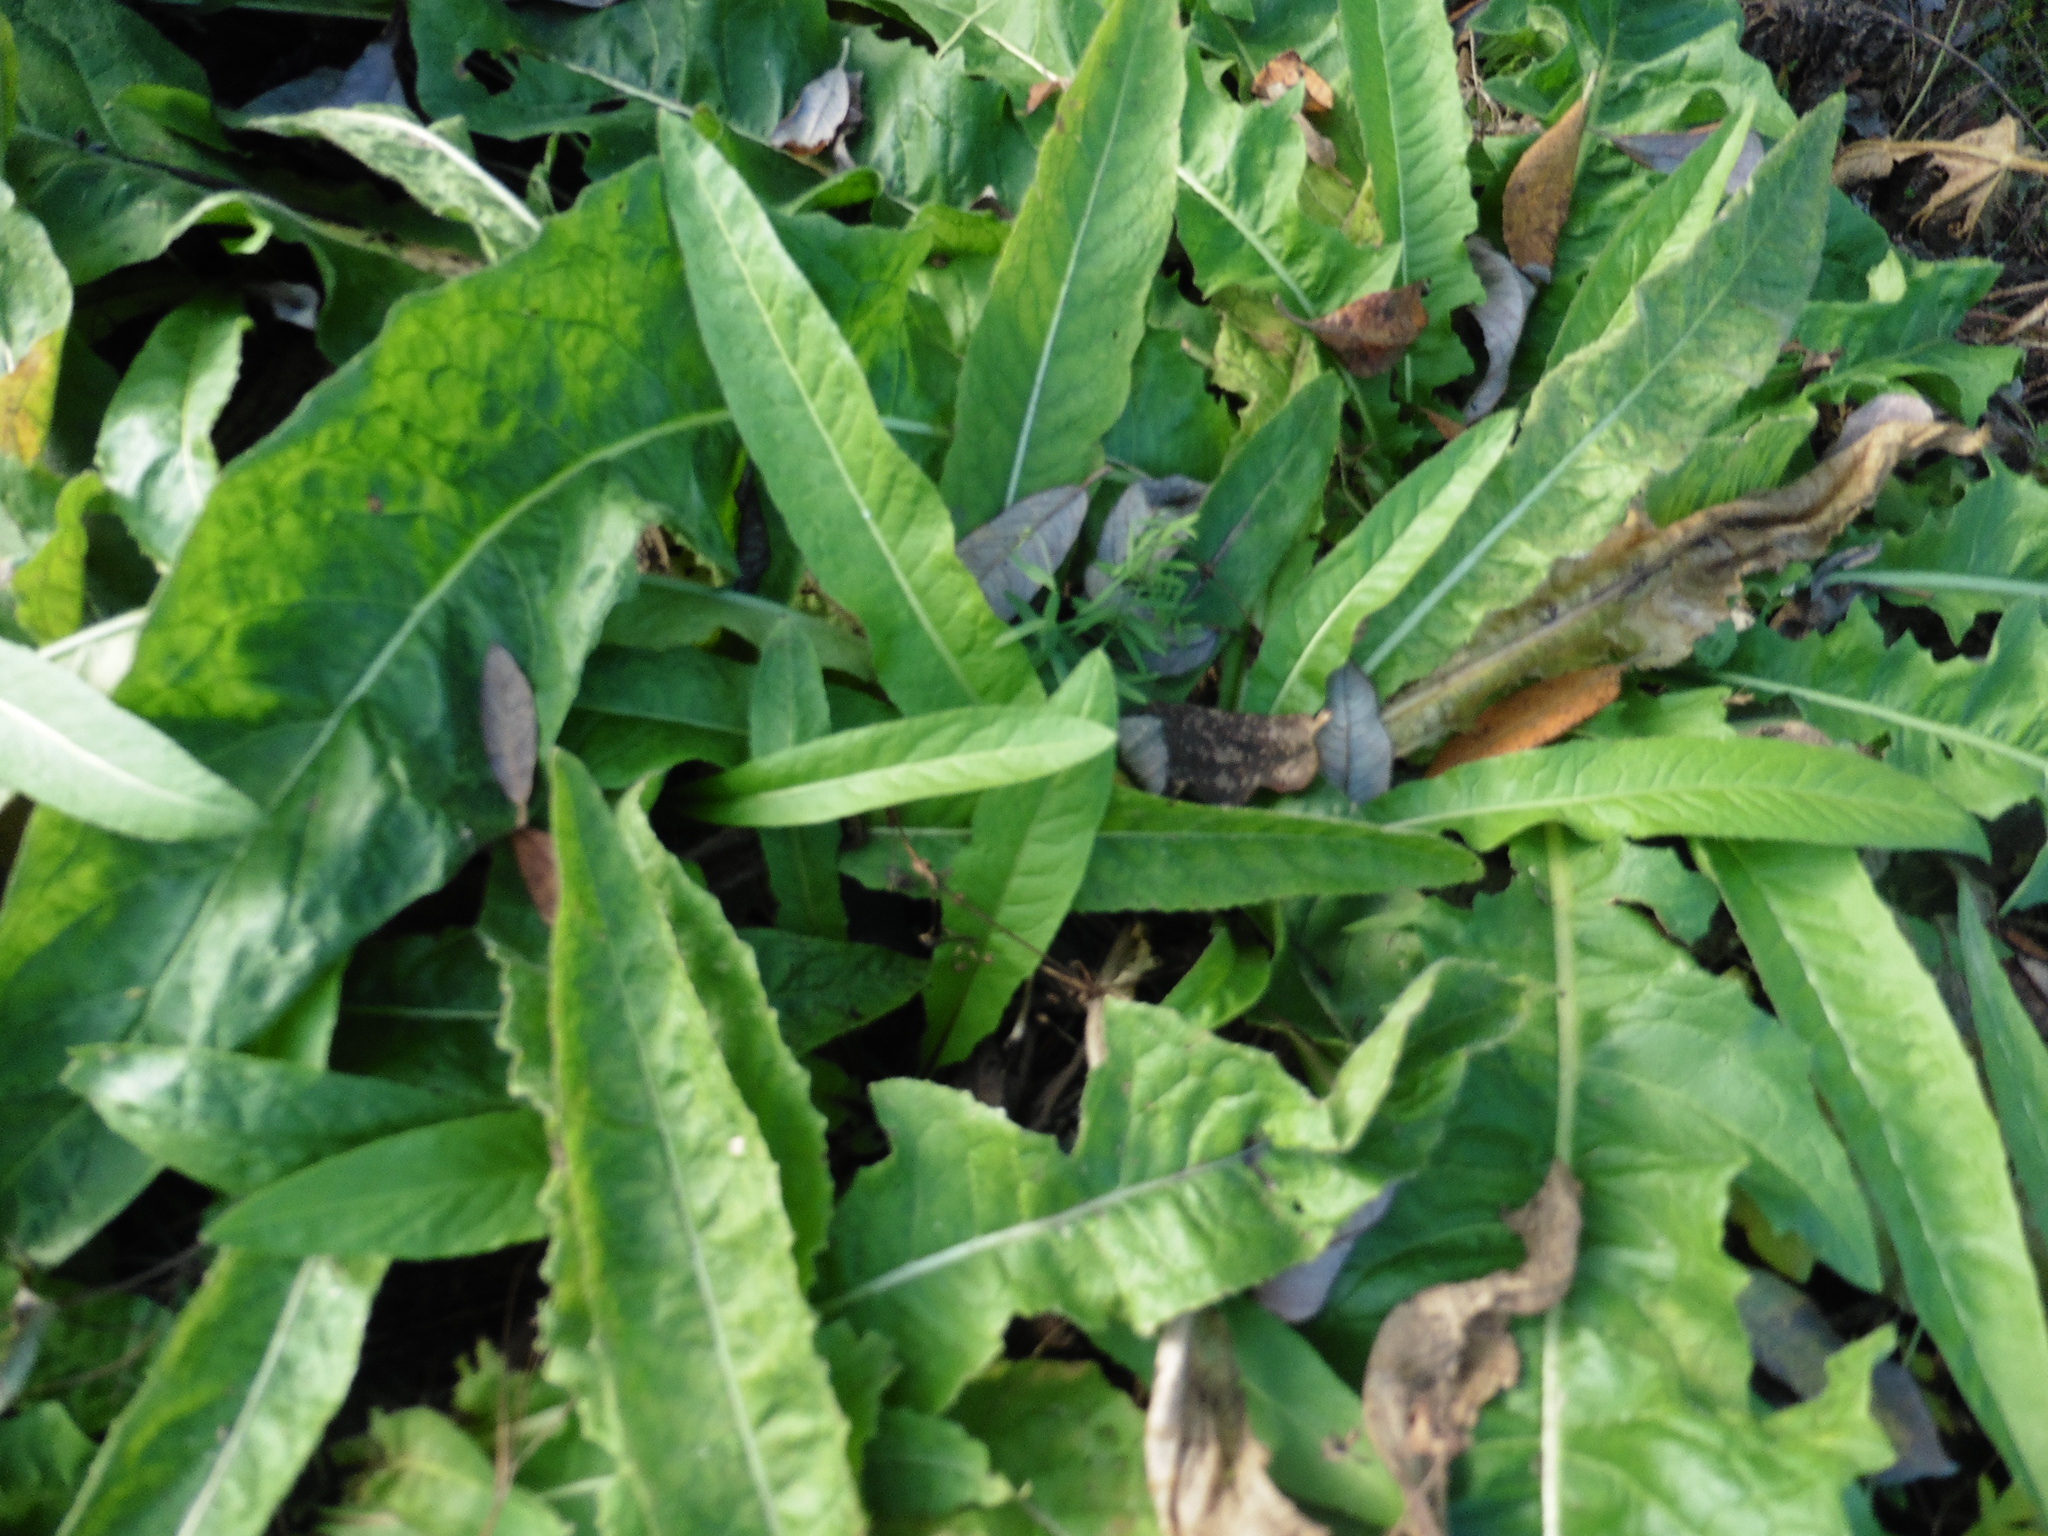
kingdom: Plantae
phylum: Tracheophyta
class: Magnoliopsida
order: Brassicales
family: Brassicaceae
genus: Bunias
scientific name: Bunias orientalis
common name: Warty-cabbage
